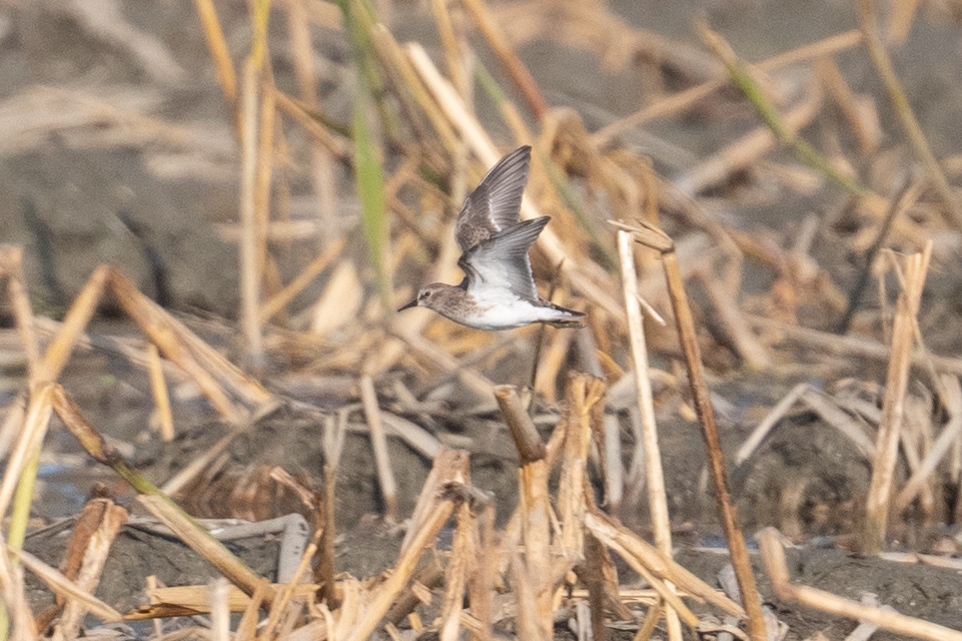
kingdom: Animalia
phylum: Chordata
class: Aves
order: Charadriiformes
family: Scolopacidae
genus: Calidris
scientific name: Calidris minutilla
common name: Least sandpiper
